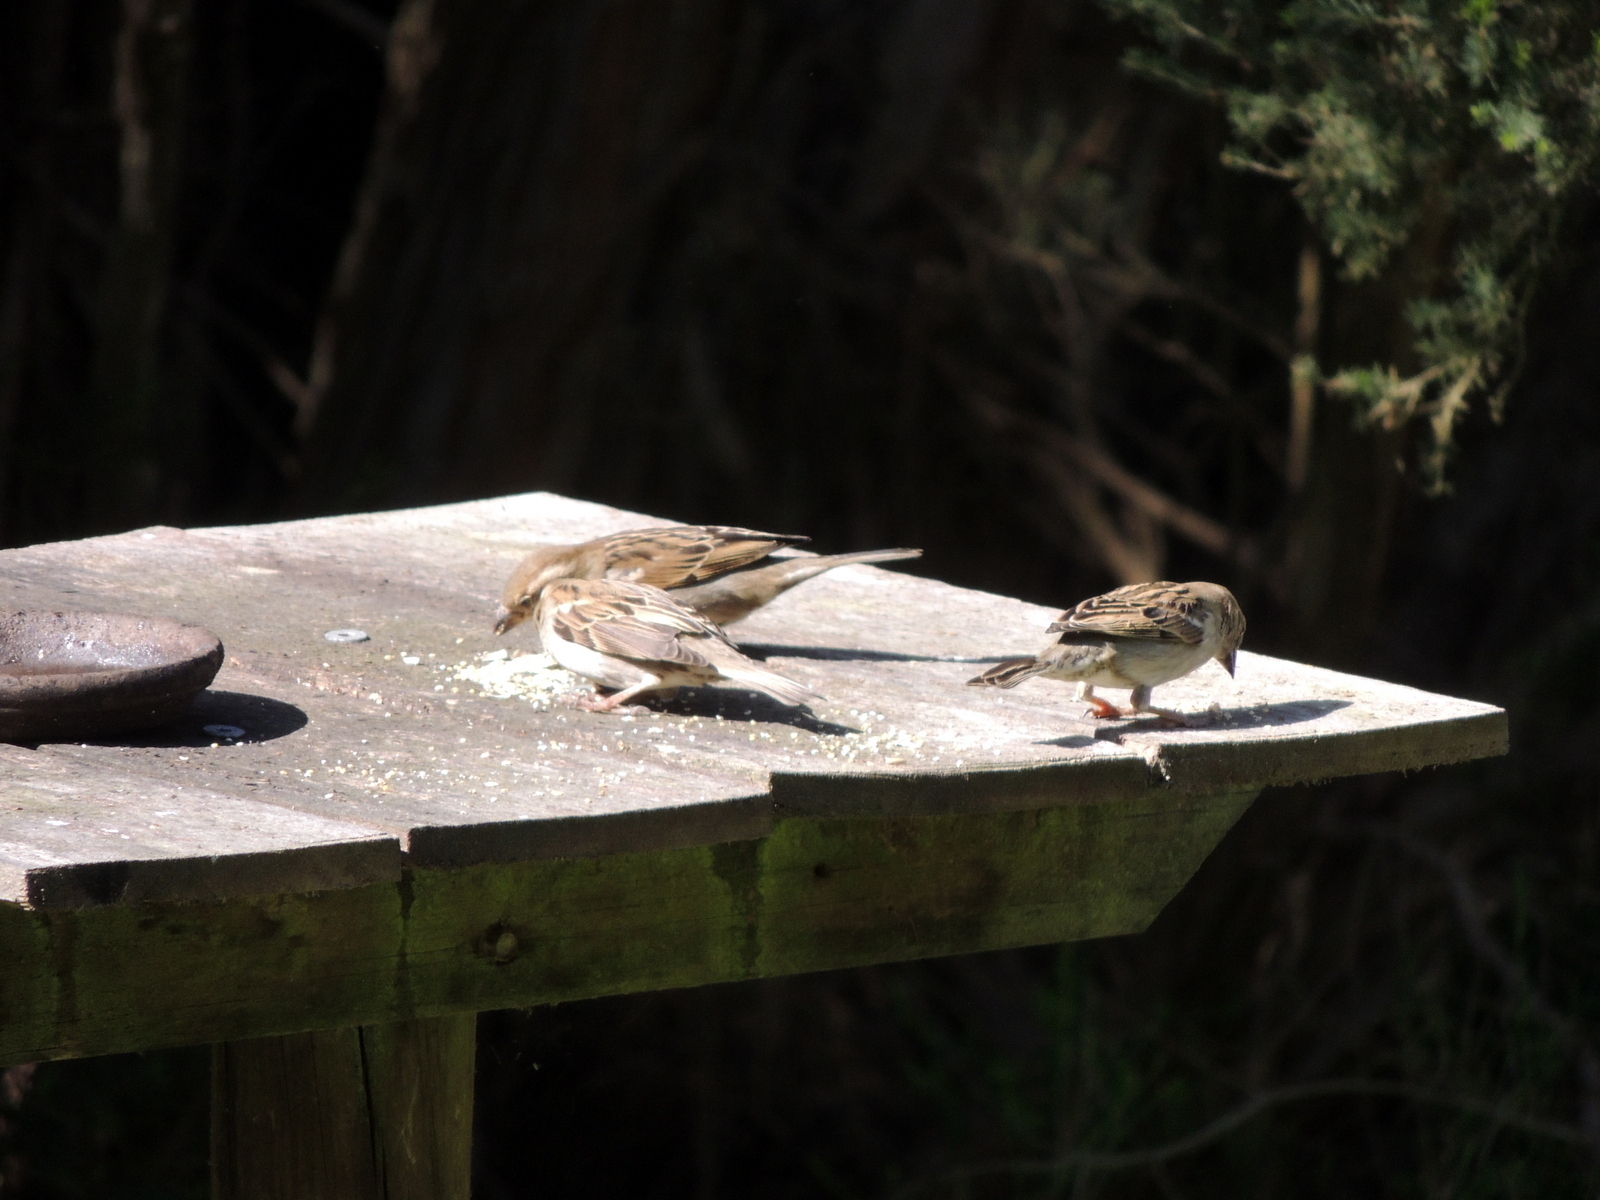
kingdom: Animalia
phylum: Chordata
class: Aves
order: Passeriformes
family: Passeridae
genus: Passer
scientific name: Passer domesticus
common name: House sparrow
